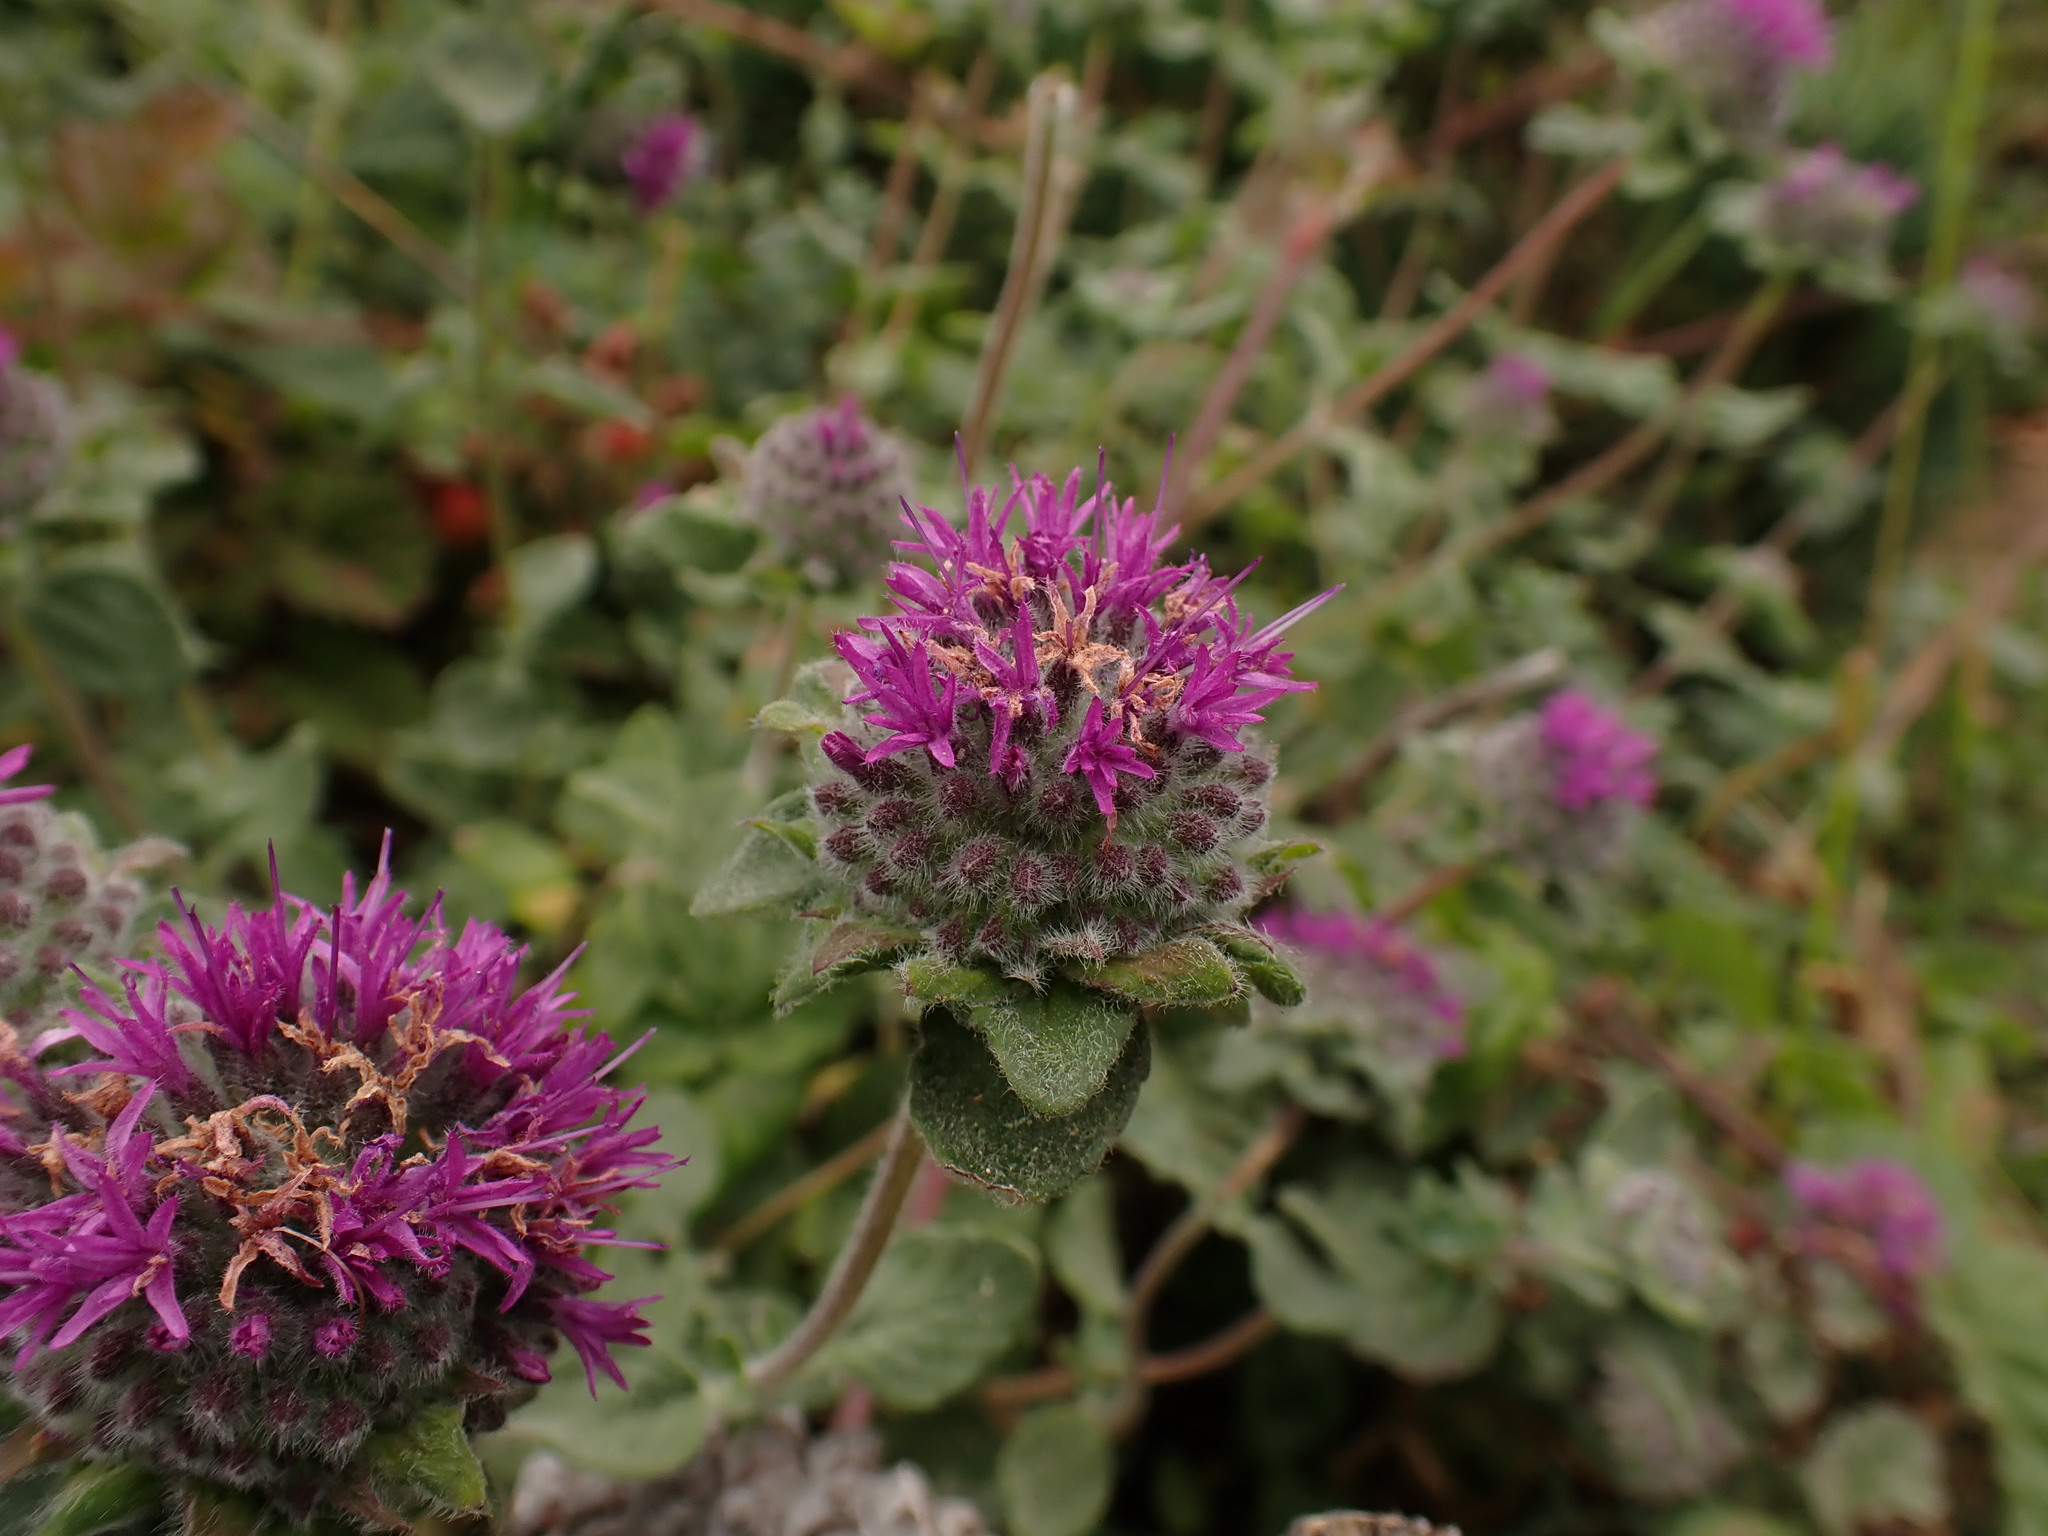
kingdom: Plantae
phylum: Tracheophyta
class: Magnoliopsida
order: Lamiales
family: Lamiaceae
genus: Monardella
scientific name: Monardella odoratissima
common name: Pacific monardella
